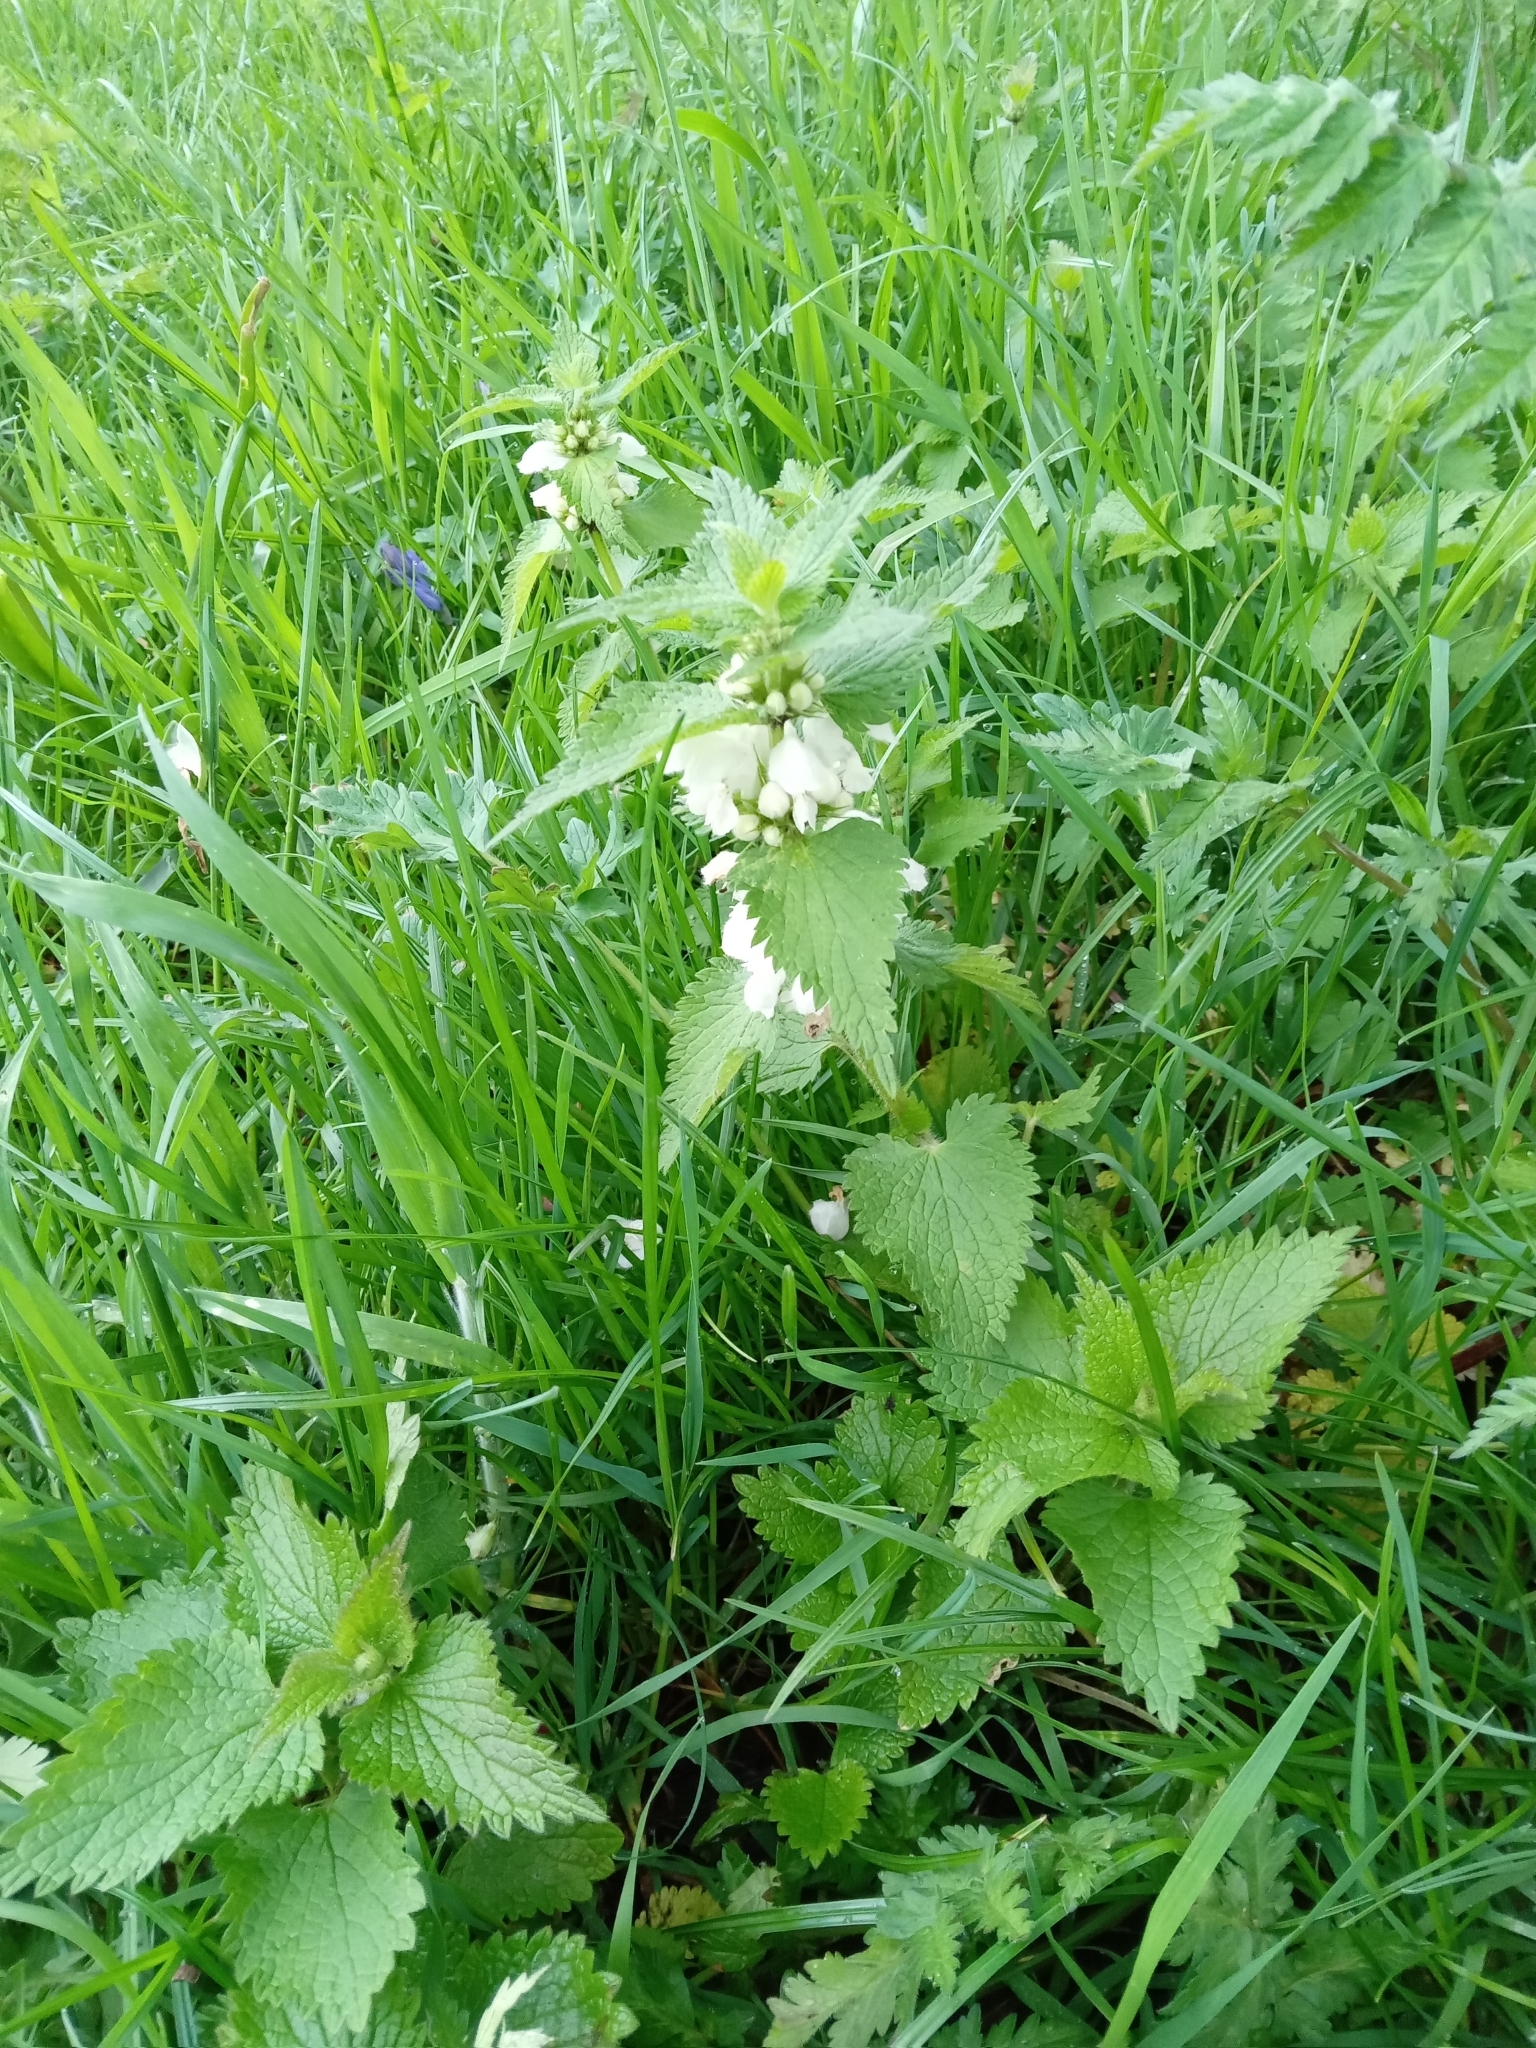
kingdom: Plantae
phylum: Tracheophyta
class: Magnoliopsida
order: Lamiales
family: Lamiaceae
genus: Lamium
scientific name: Lamium album
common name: White dead-nettle
